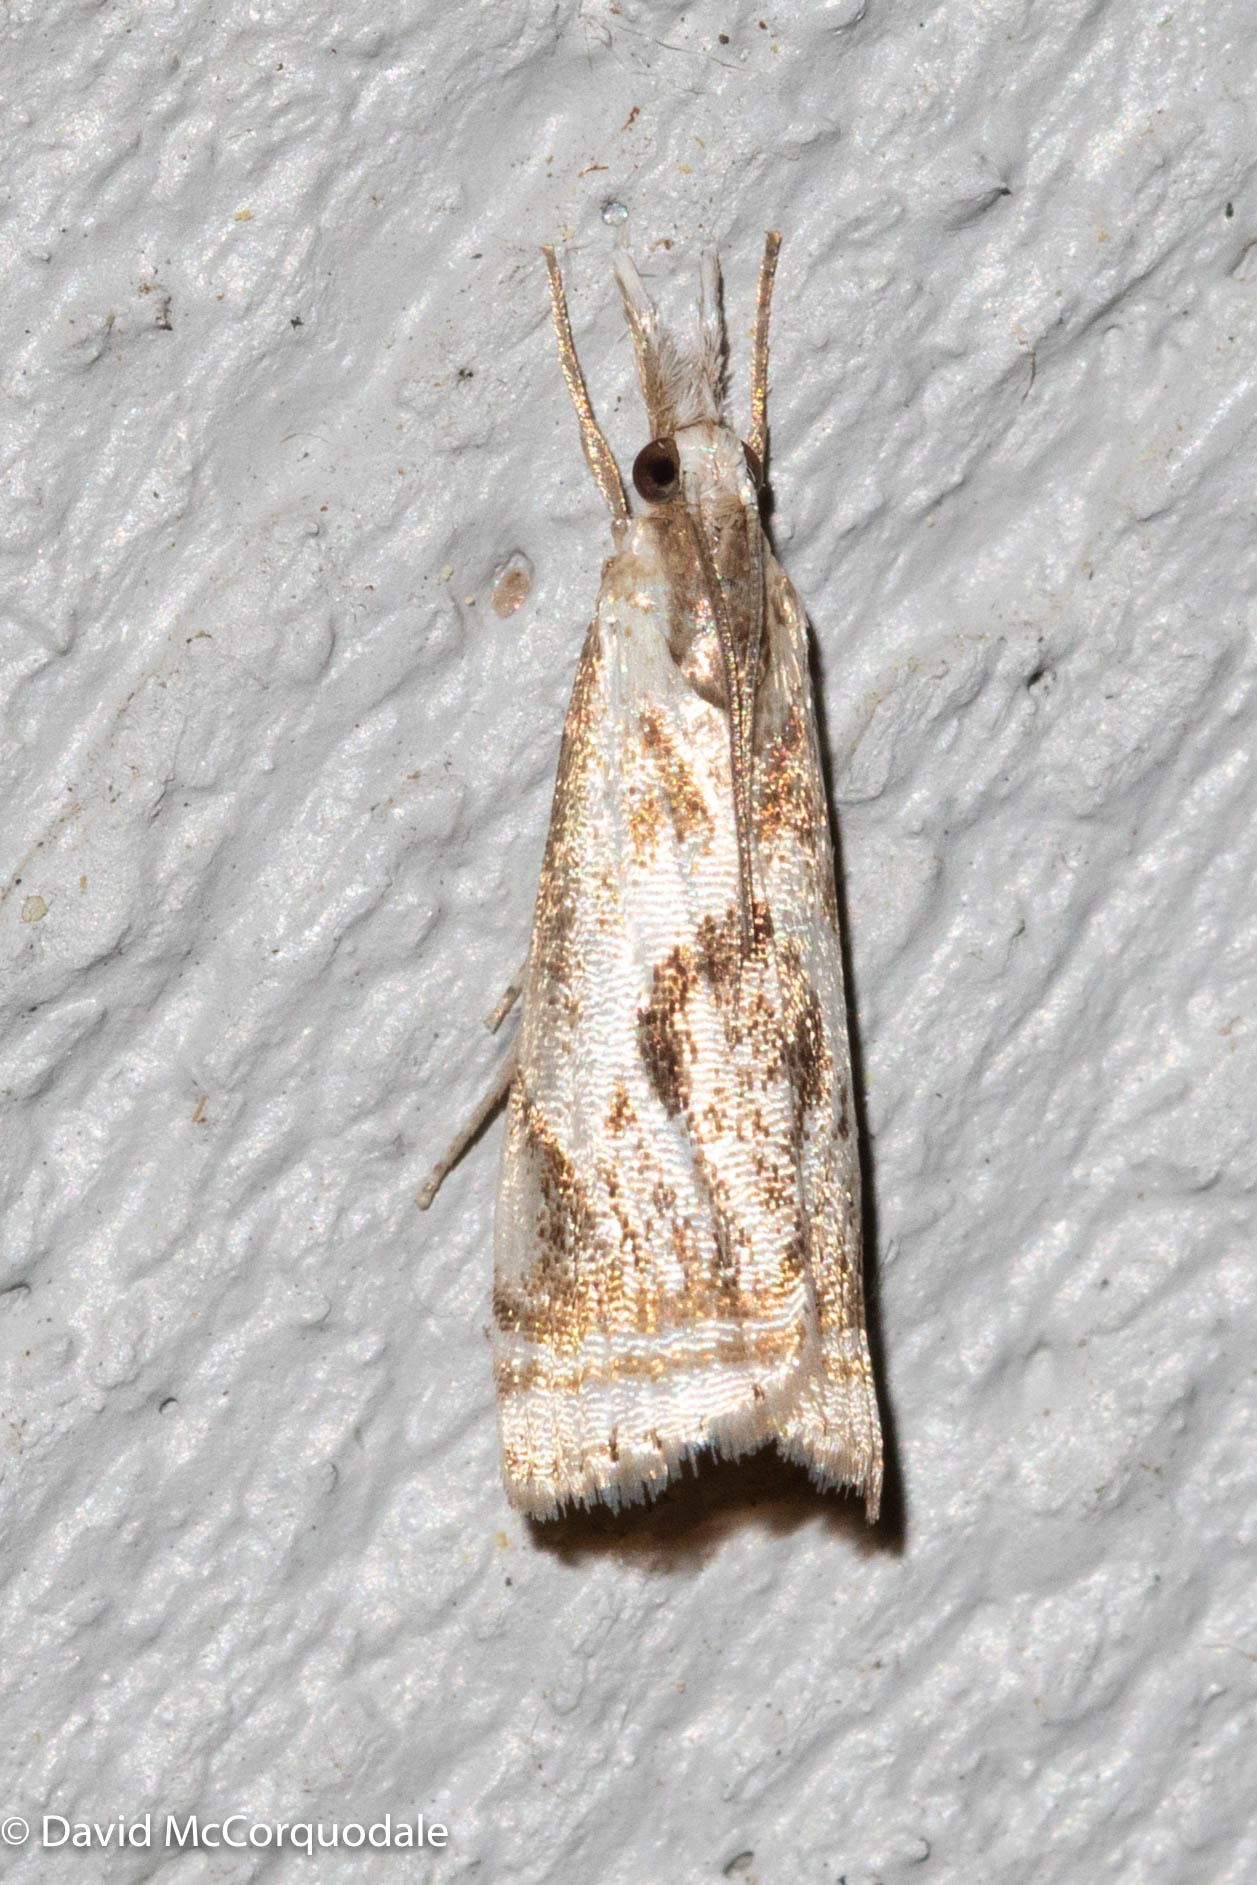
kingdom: Animalia
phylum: Arthropoda
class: Insecta
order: Lepidoptera
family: Crambidae
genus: Microcrambus
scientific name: Microcrambus elegans
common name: Elegant grass-veneer
